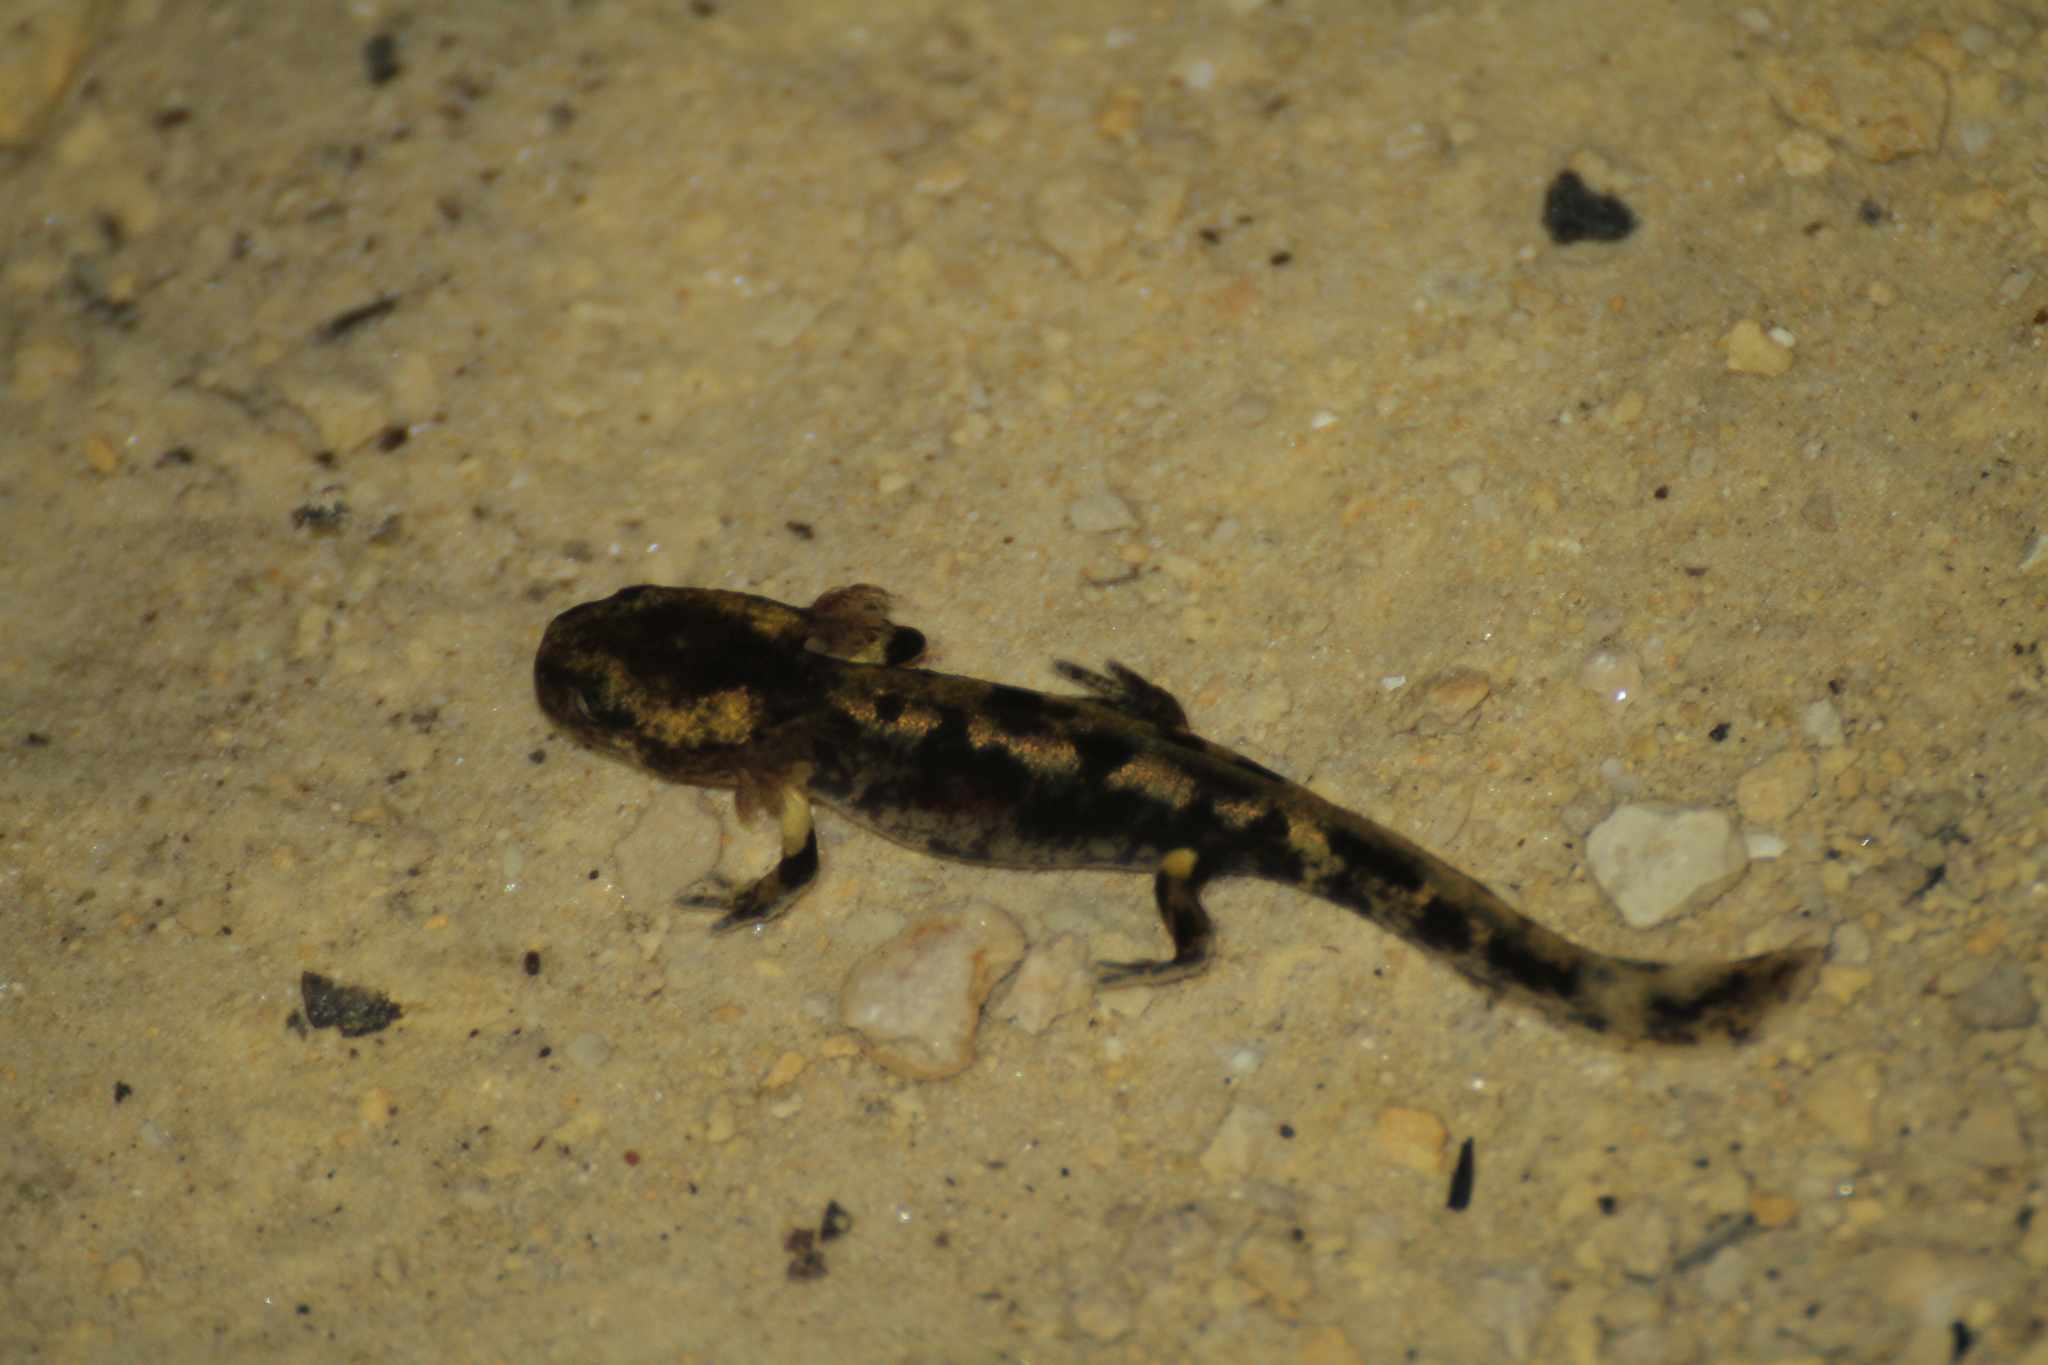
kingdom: Animalia
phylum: Chordata
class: Amphibia
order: Caudata
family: Salamandridae
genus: Salamandra
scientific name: Salamandra salamandra
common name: Fire salamander
